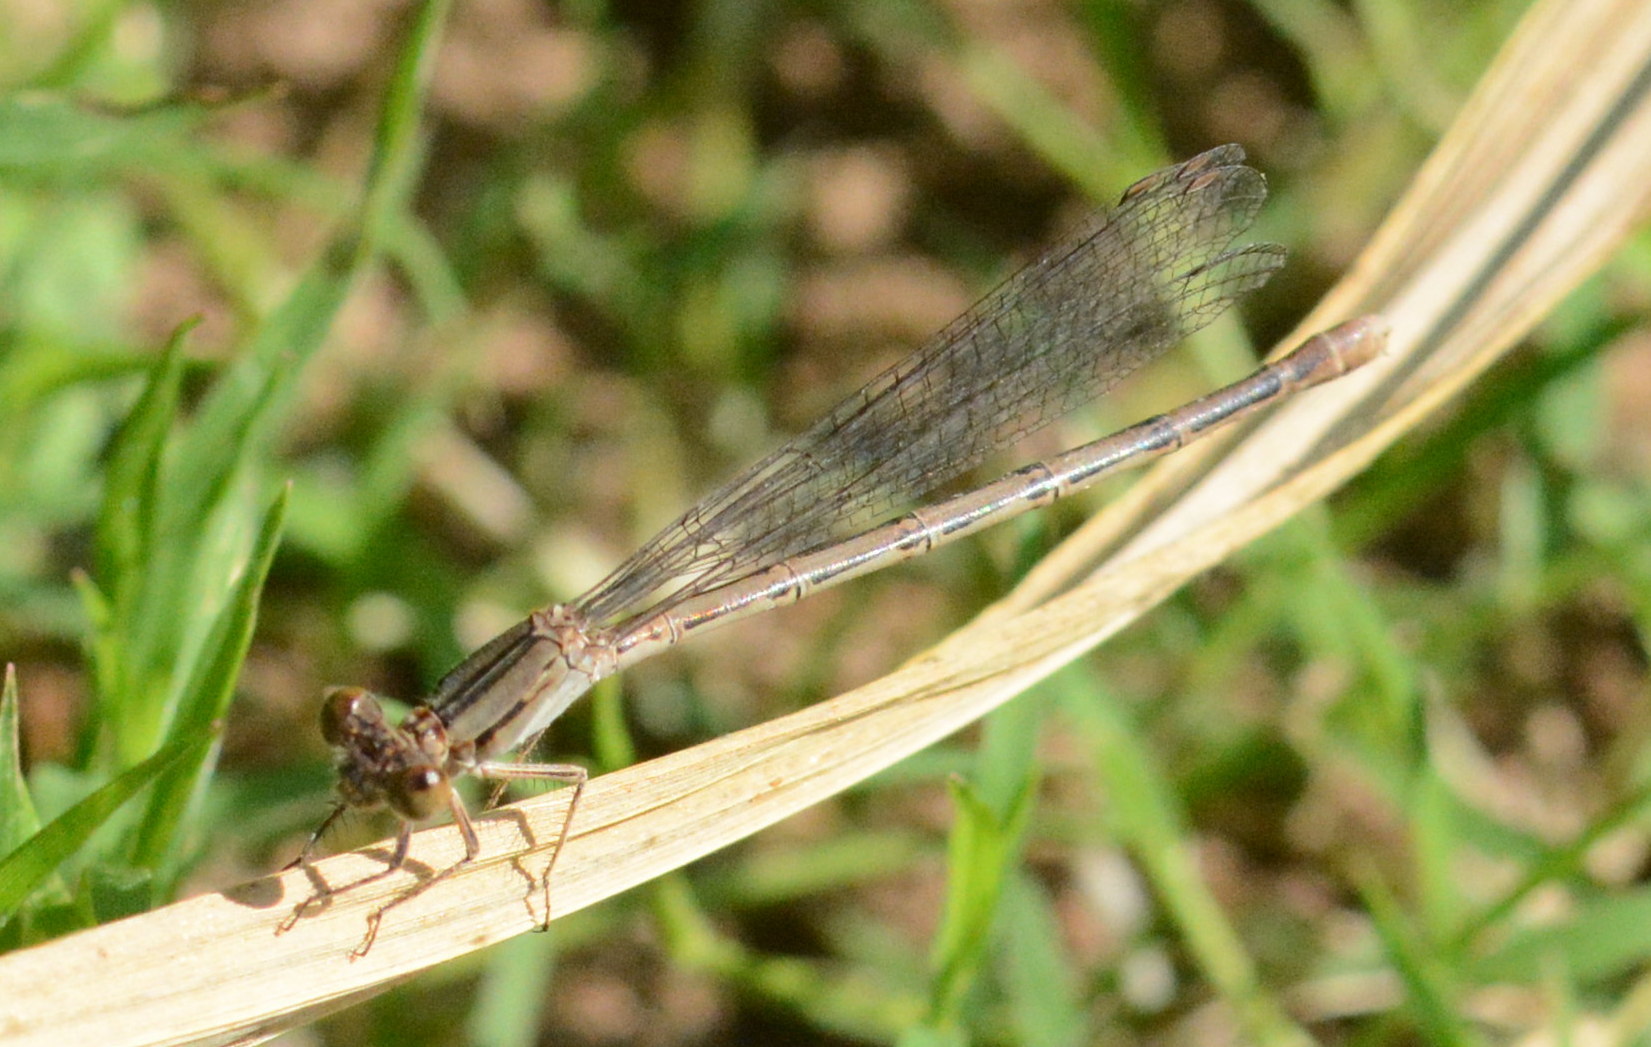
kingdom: Animalia
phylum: Arthropoda
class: Insecta
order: Odonata
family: Coenagrionidae
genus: Argia
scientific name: Argia fumipennis
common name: Variable dancer
